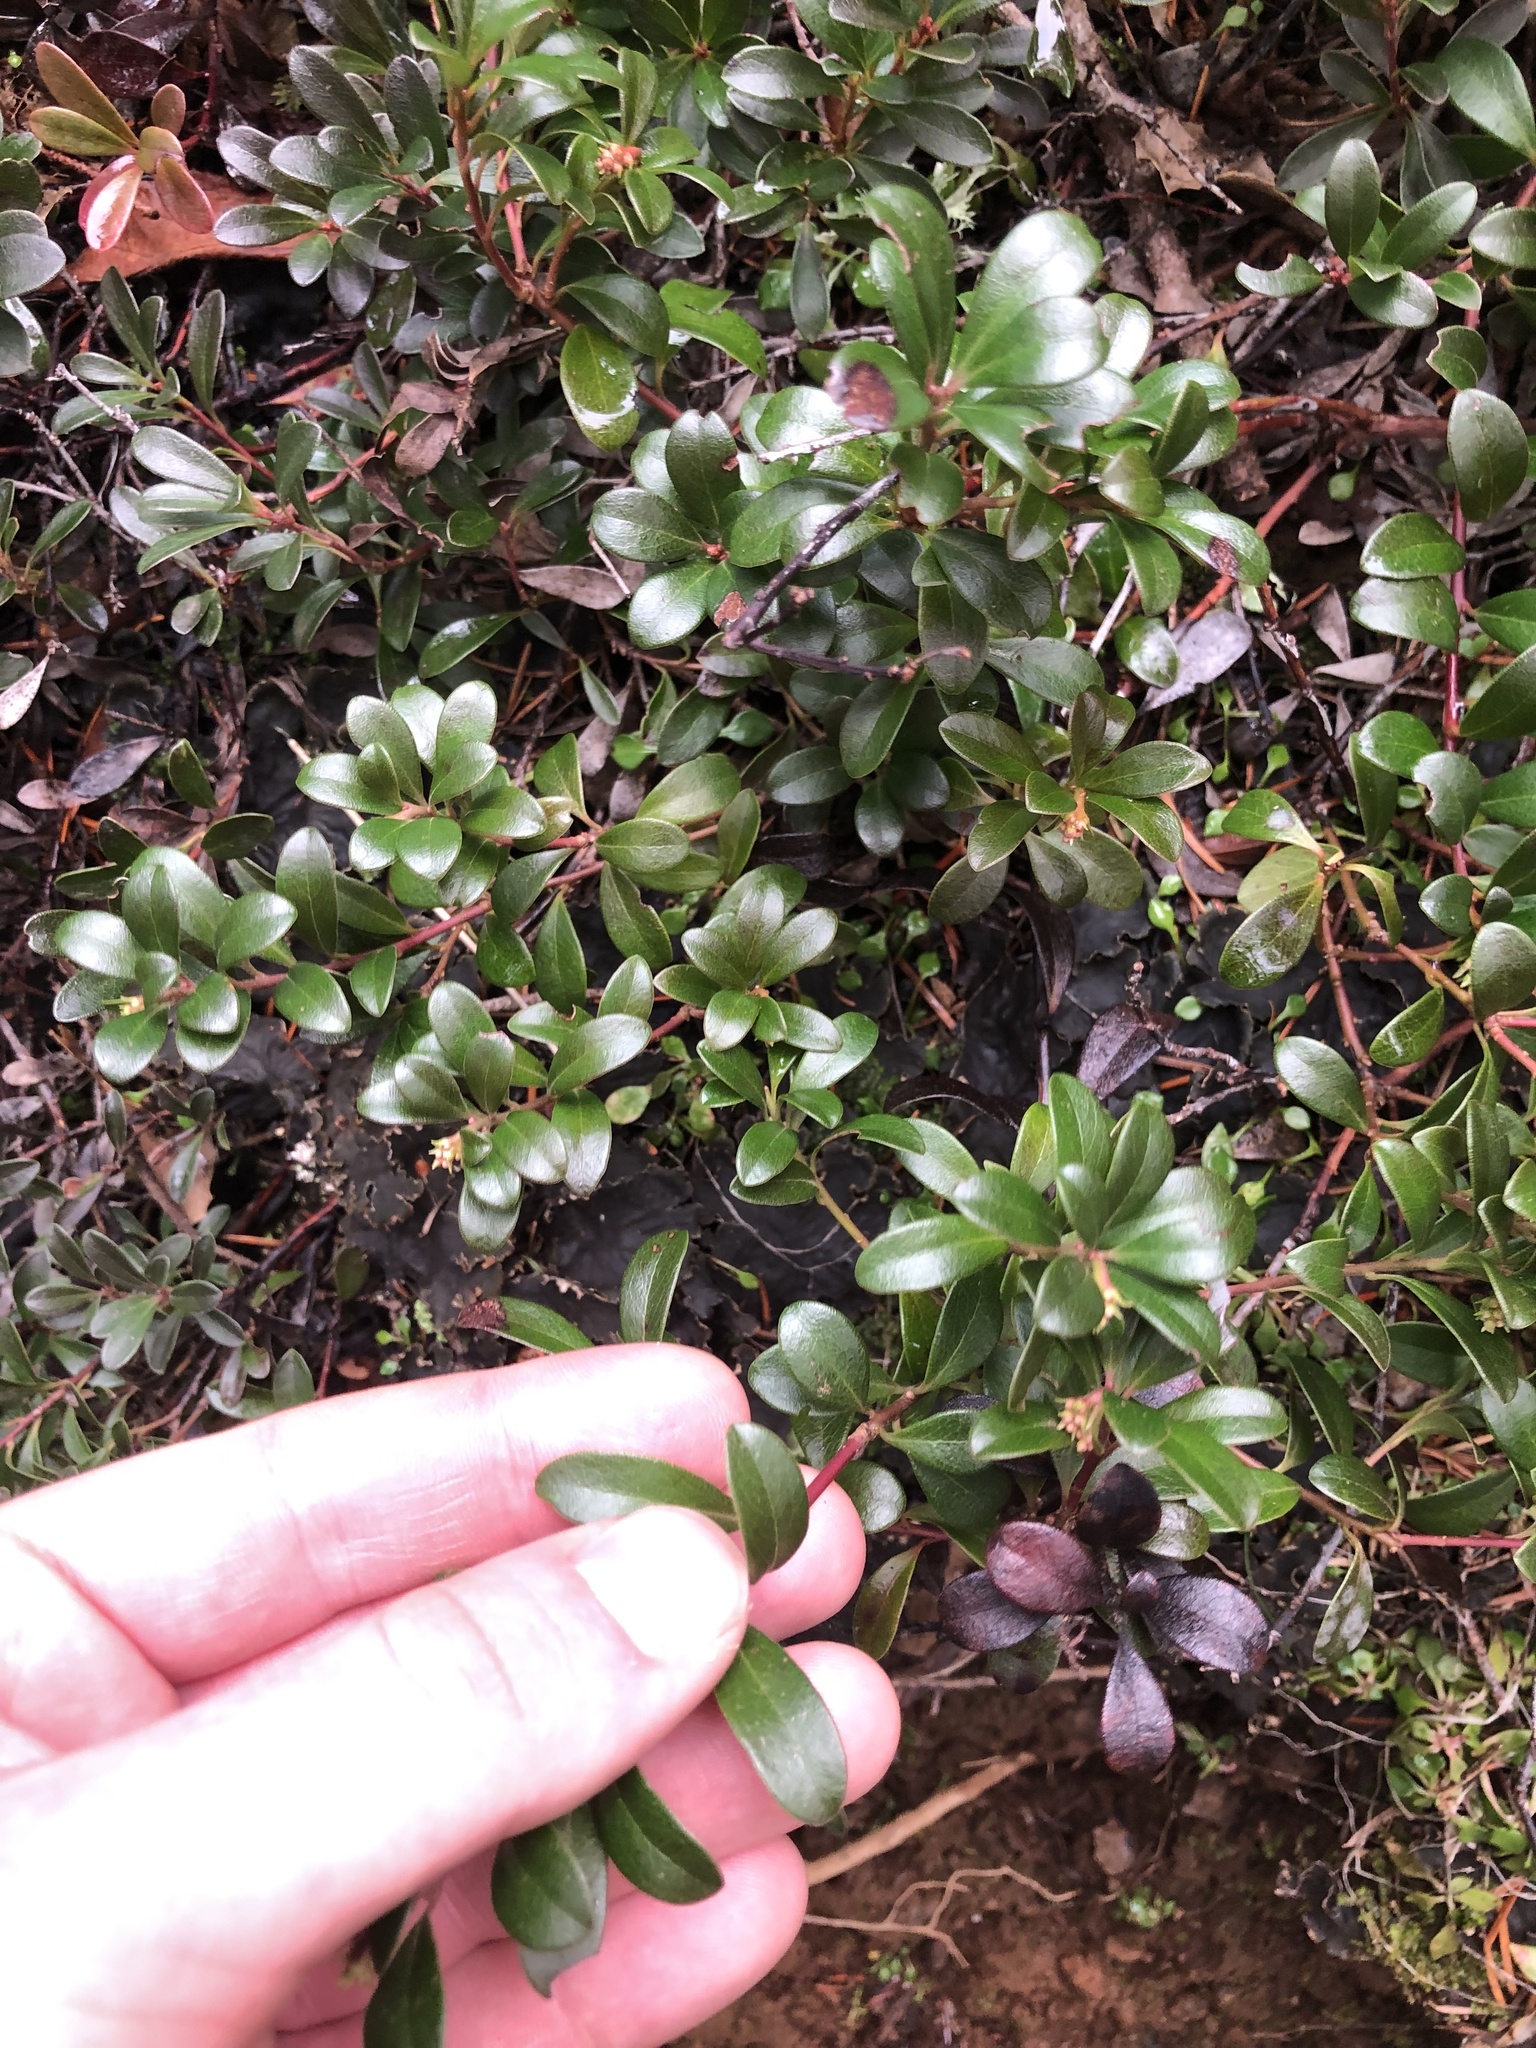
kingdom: Plantae
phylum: Tracheophyta
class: Magnoliopsida
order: Ericales
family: Ericaceae
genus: Arctostaphylos
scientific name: Arctostaphylos uva-ursi
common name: Bearberry
